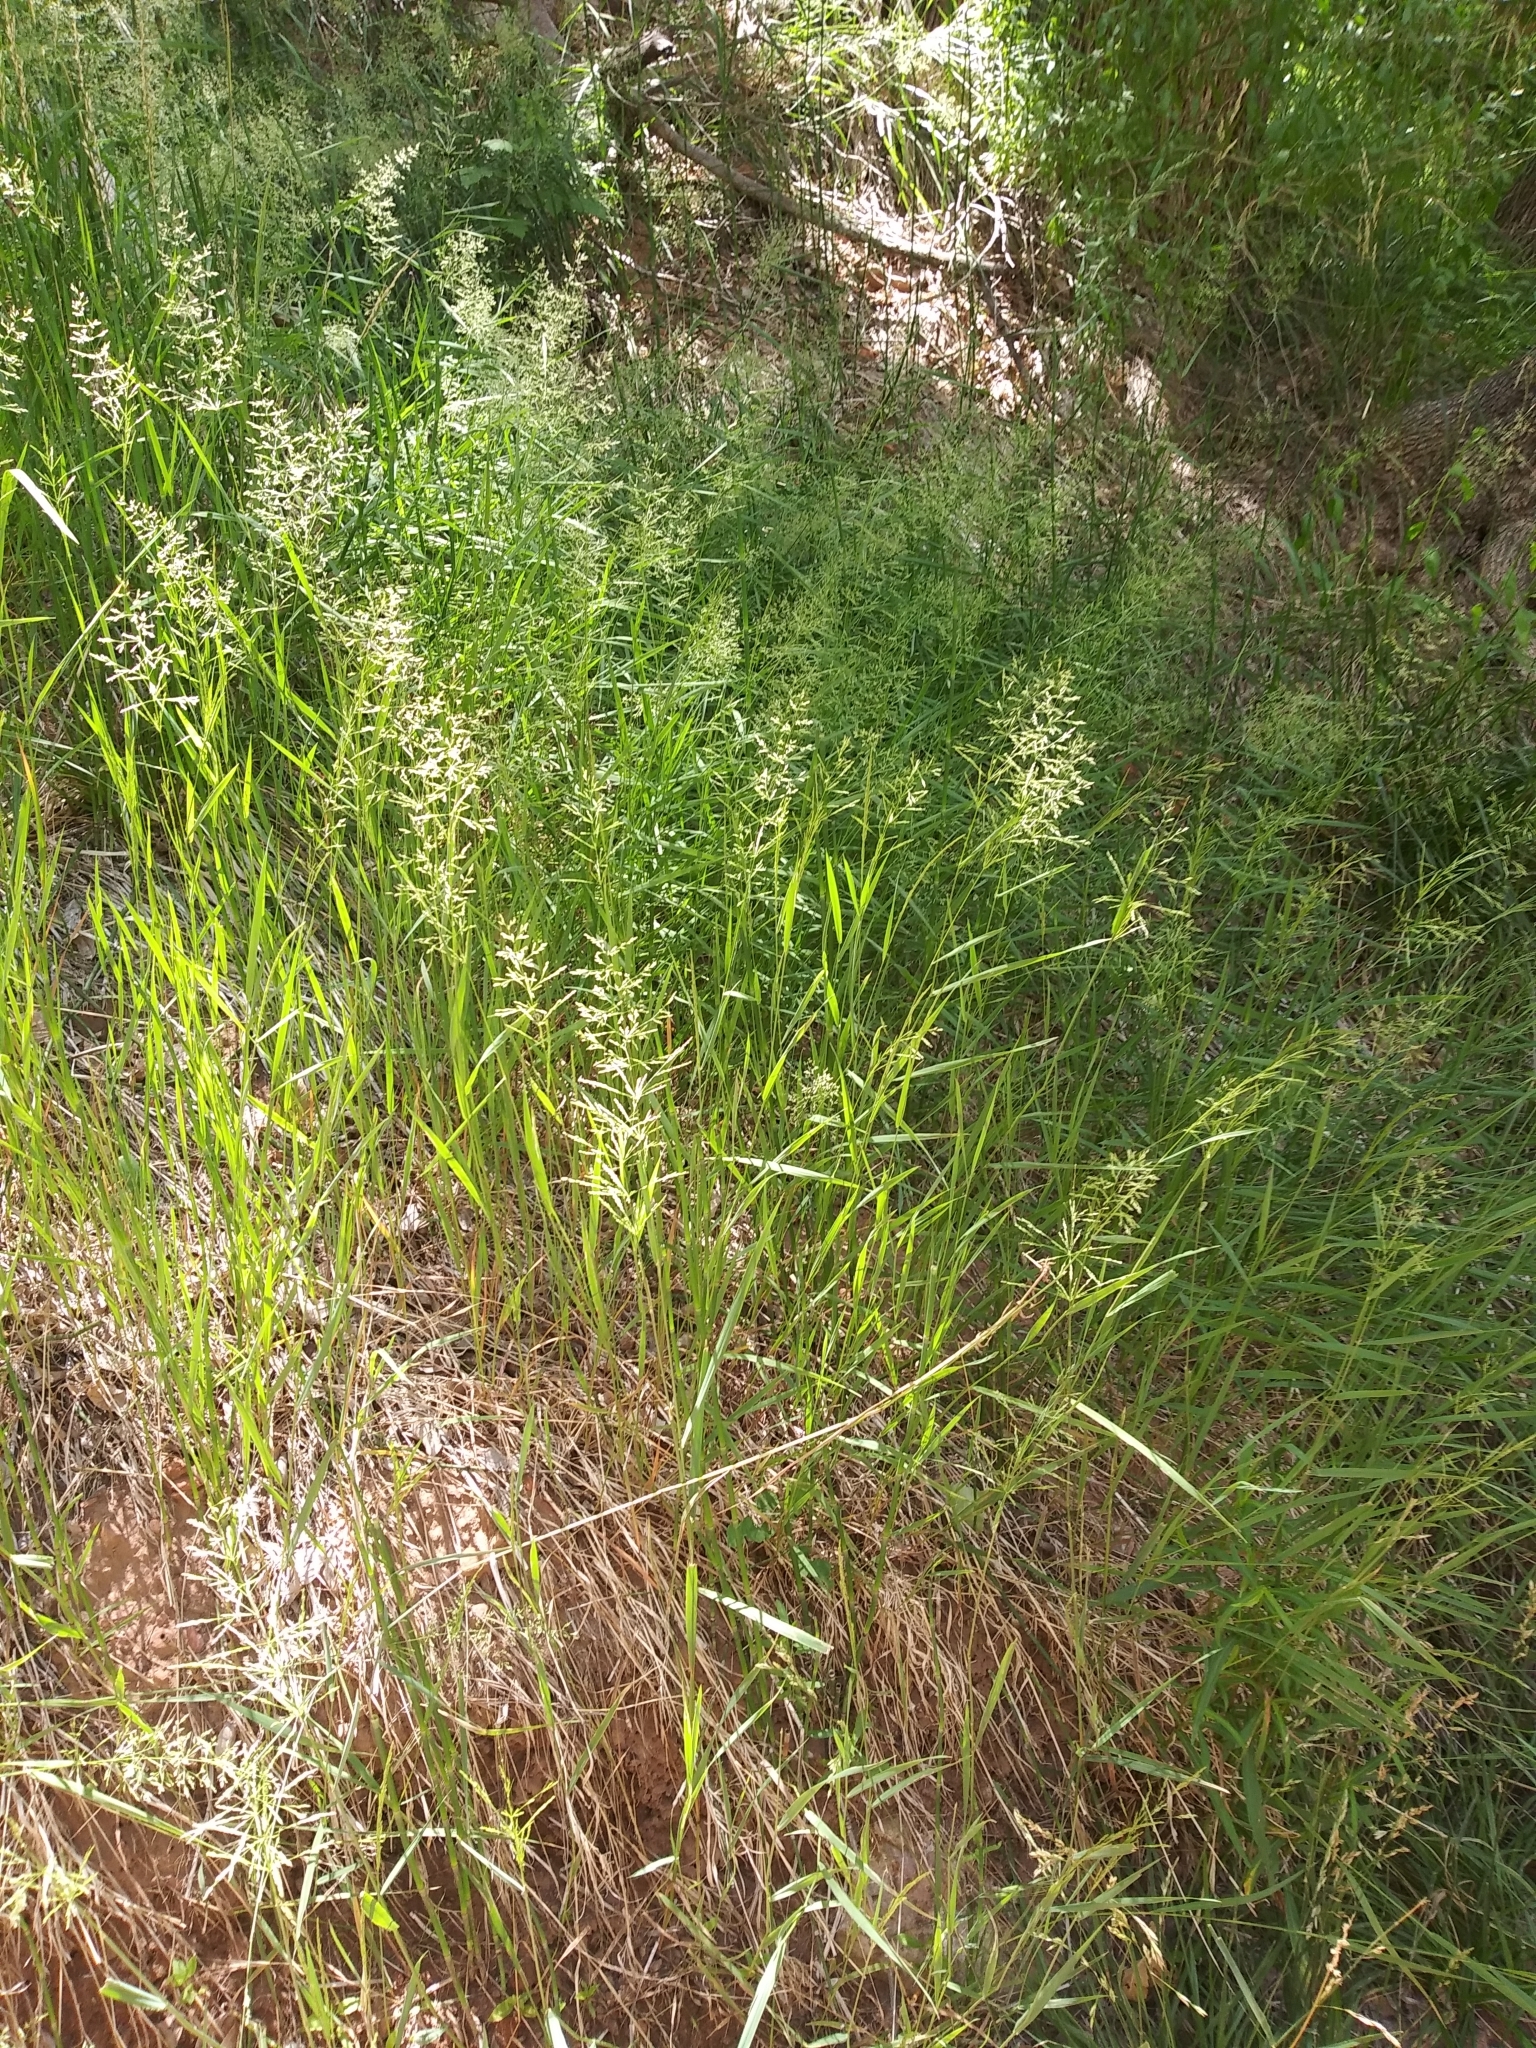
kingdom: Plantae
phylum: Tracheophyta
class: Liliopsida
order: Poales
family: Poaceae
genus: Polypogon
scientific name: Polypogon viridis
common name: Water bent
